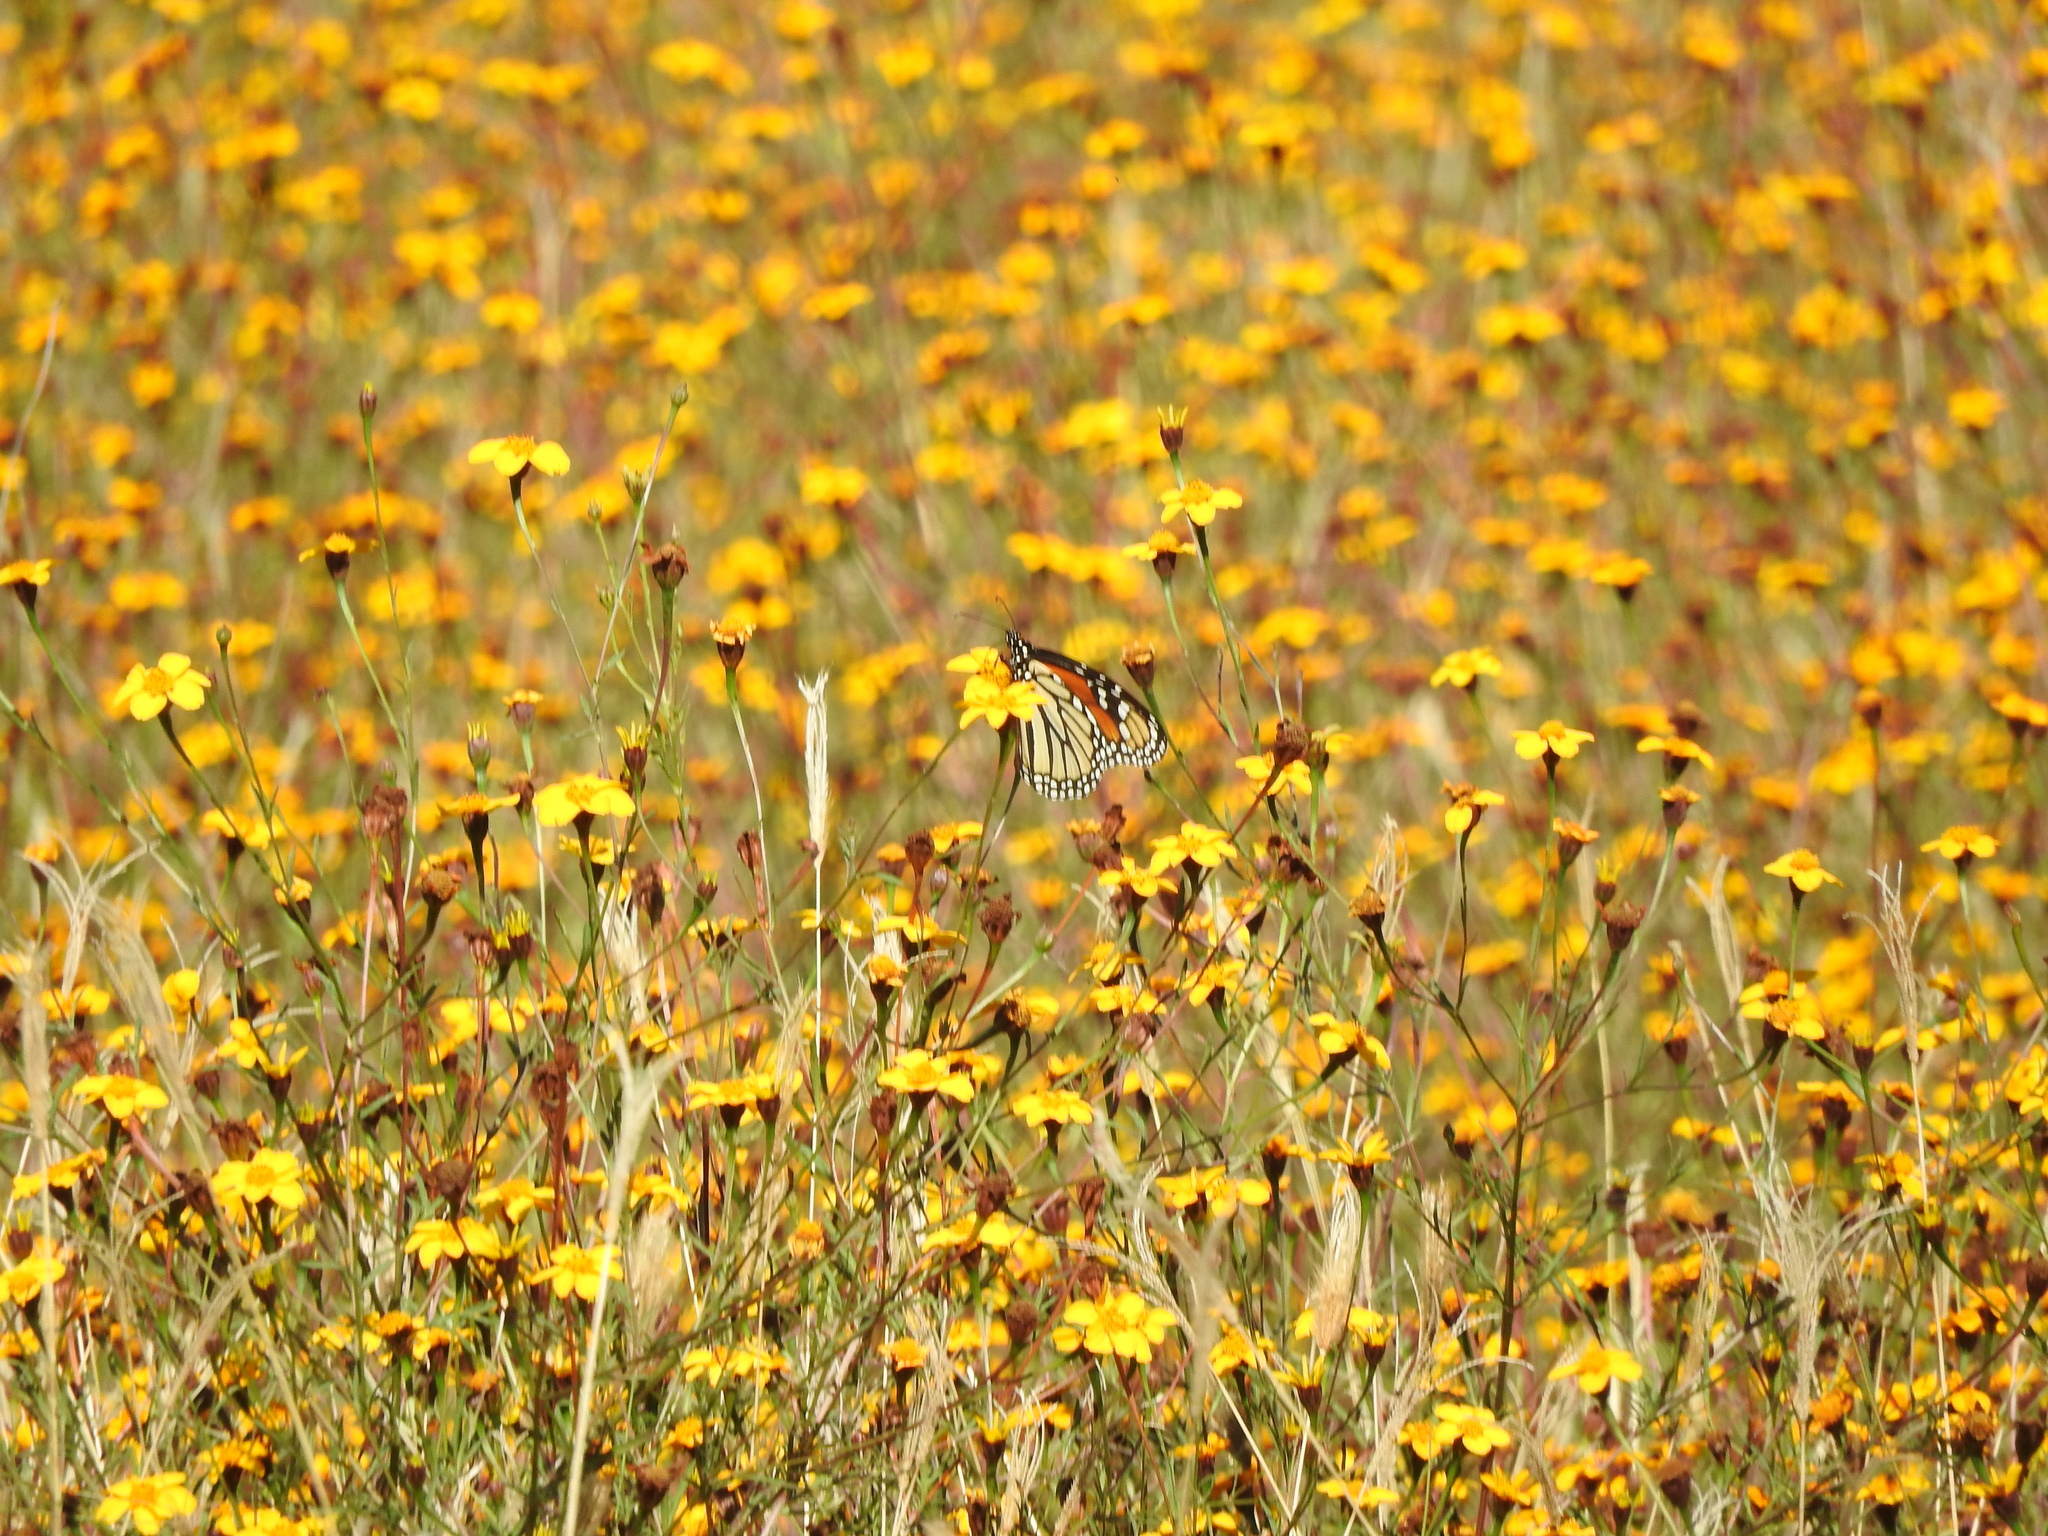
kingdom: Animalia
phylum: Arthropoda
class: Insecta
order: Lepidoptera
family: Nymphalidae
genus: Danaus
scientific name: Danaus plexippus
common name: Monarch
